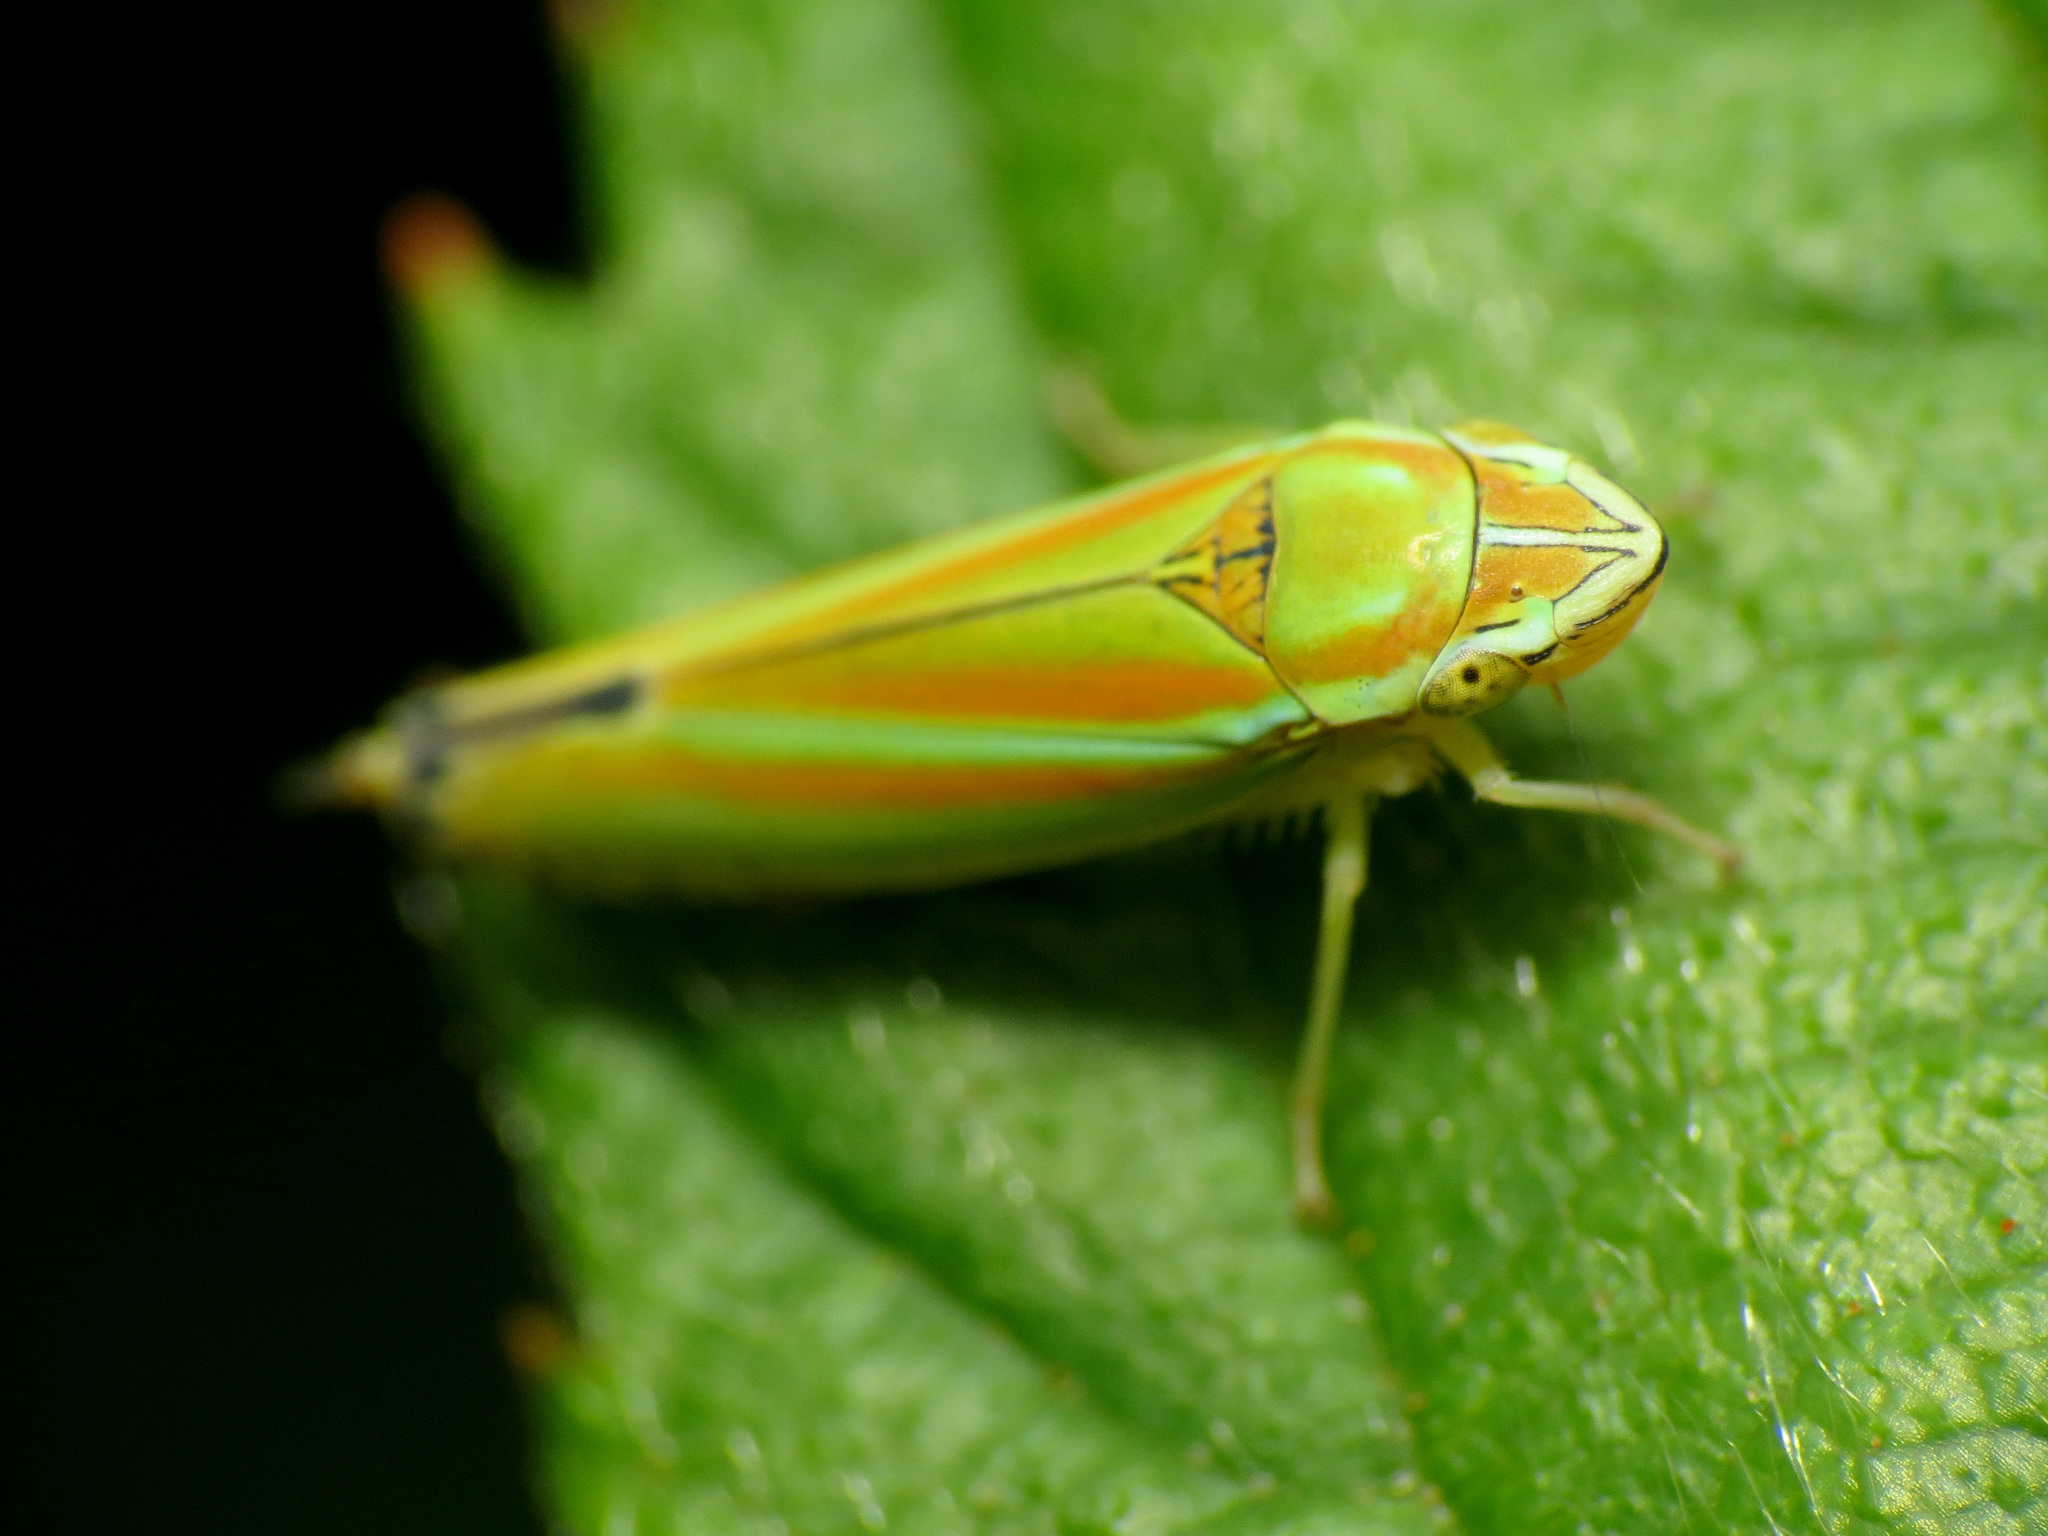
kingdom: Animalia
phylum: Arthropoda
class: Insecta
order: Hemiptera
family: Cicadellidae
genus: Graphocephala
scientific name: Graphocephala versuta
